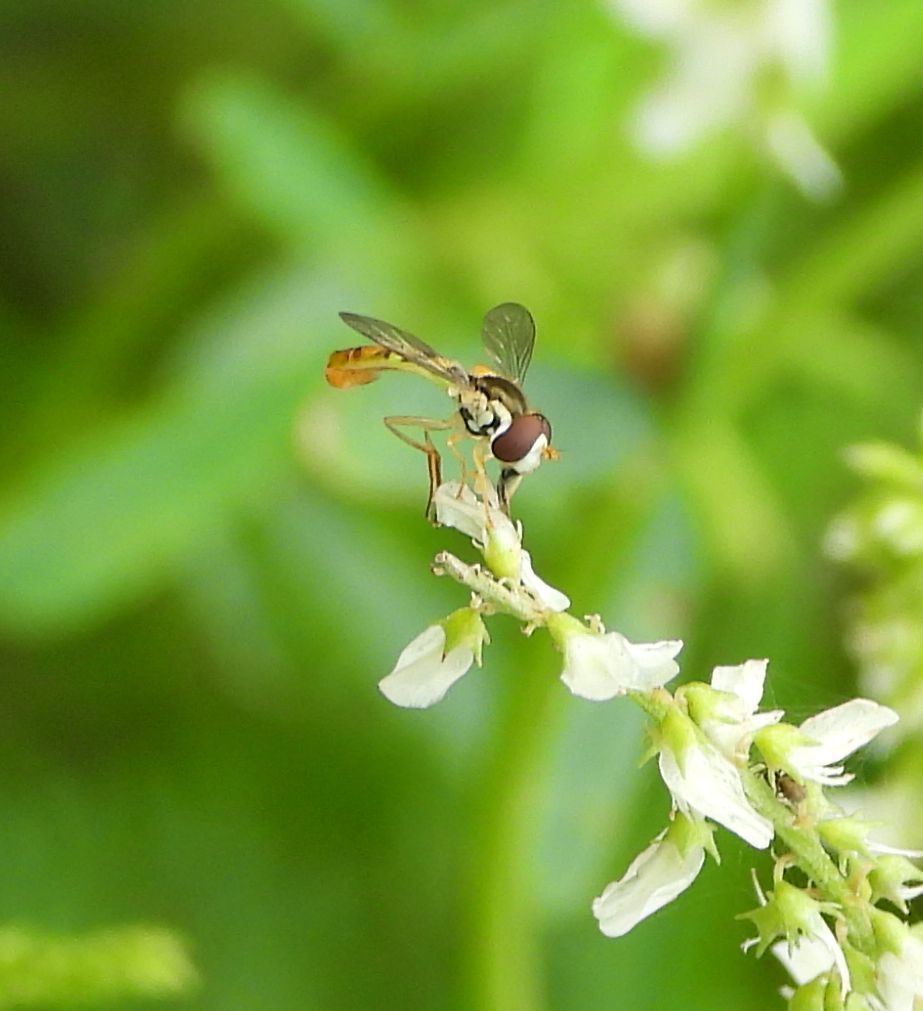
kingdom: Animalia
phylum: Arthropoda
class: Insecta
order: Diptera
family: Syrphidae
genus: Sphaerophoria
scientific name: Sphaerophoria contigua
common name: Tufted globetail
